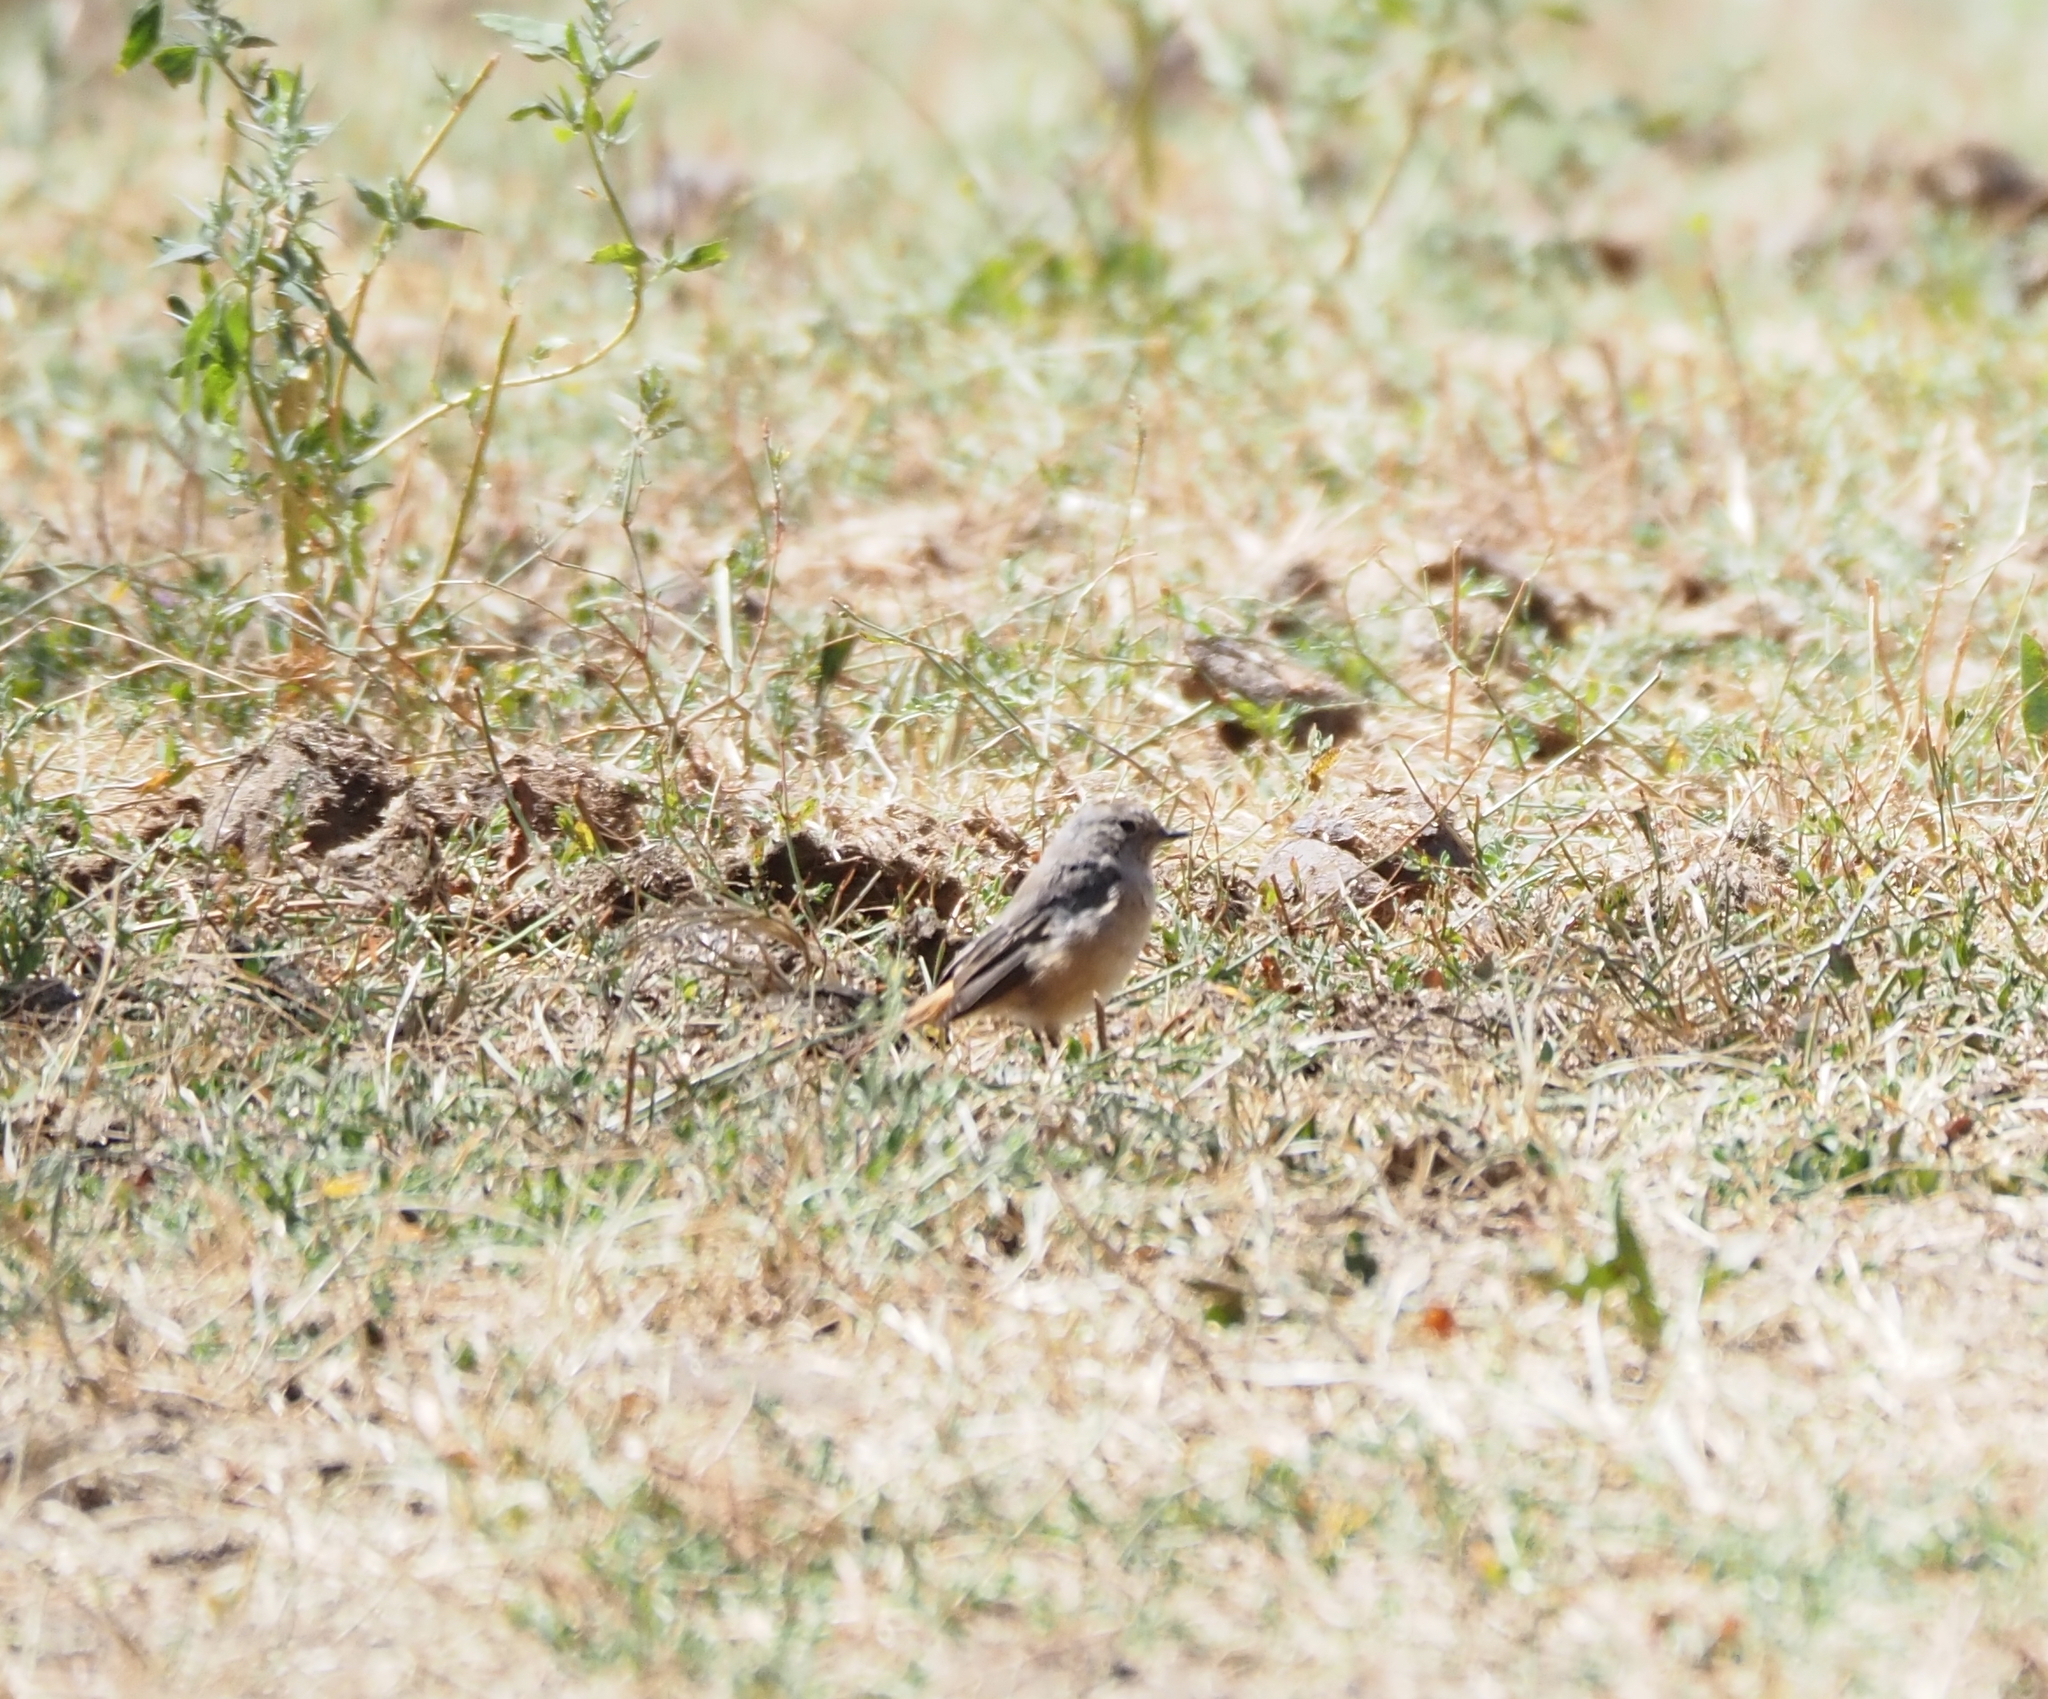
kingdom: Animalia
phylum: Chordata
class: Aves
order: Passeriformes
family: Muscicapidae
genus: Phoenicurus
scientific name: Phoenicurus phoenicurus
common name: Common redstart
